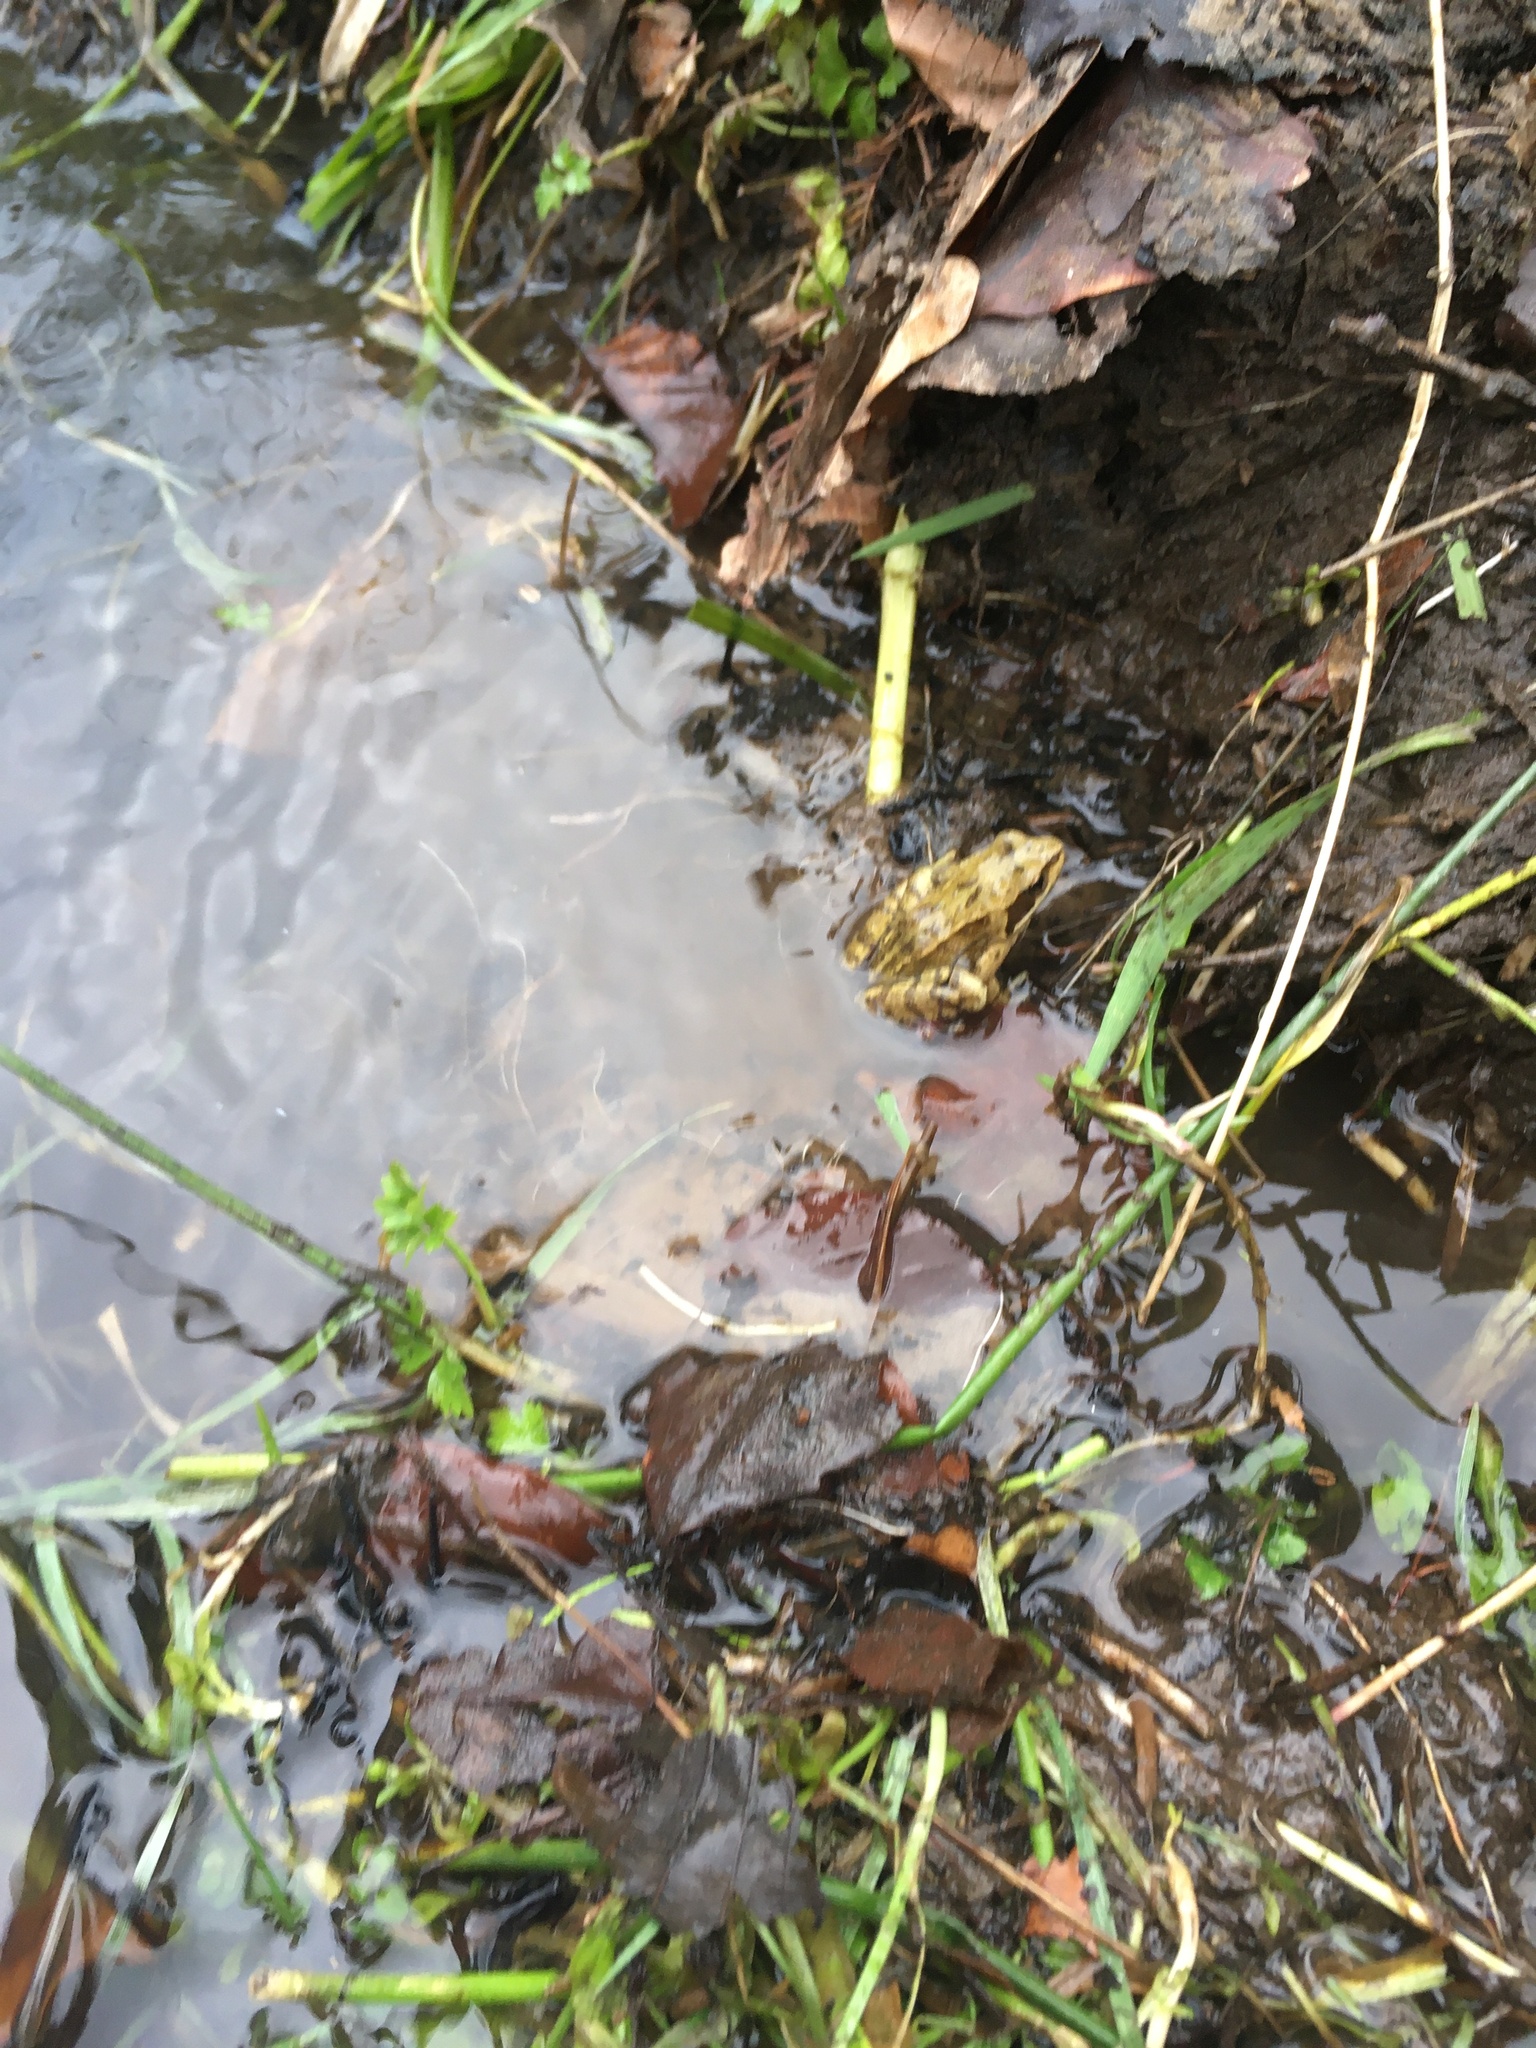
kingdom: Animalia
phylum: Chordata
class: Amphibia
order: Anura
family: Ranidae
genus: Rana
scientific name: Rana temporaria
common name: Common frog
